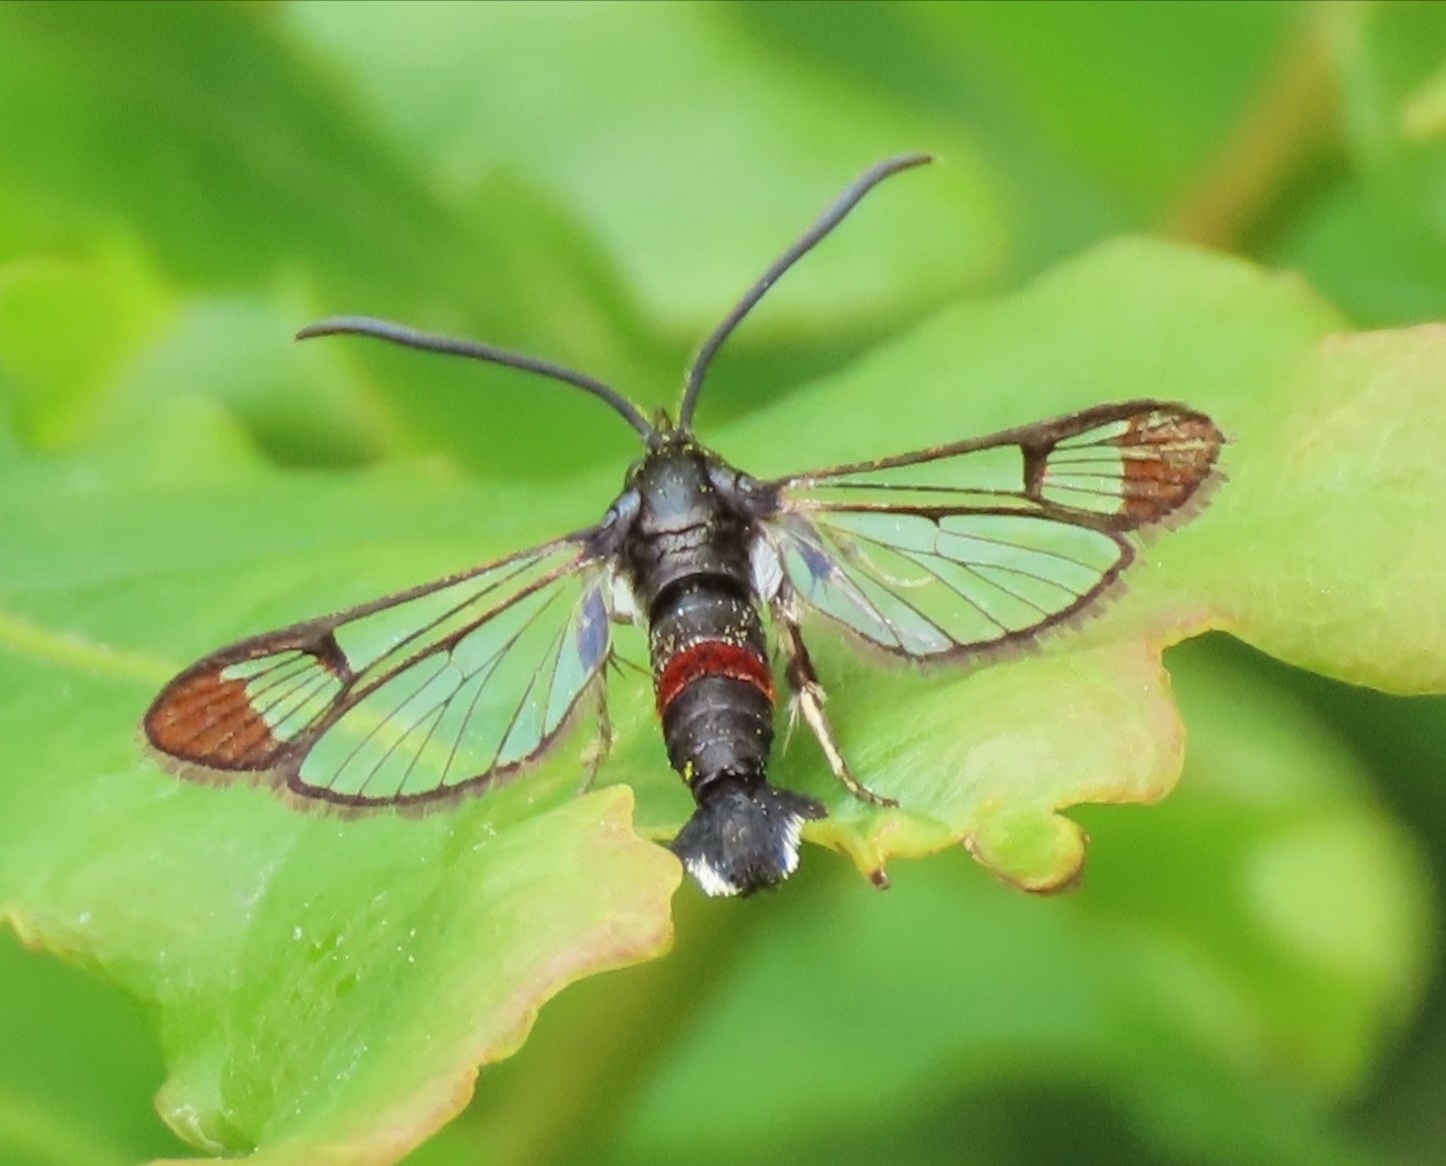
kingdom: Animalia
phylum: Arthropoda
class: Insecta
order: Lepidoptera
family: Sesiidae
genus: Synanthedon
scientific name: Synanthedon formicaeformis
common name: Red-tipped clearwing
